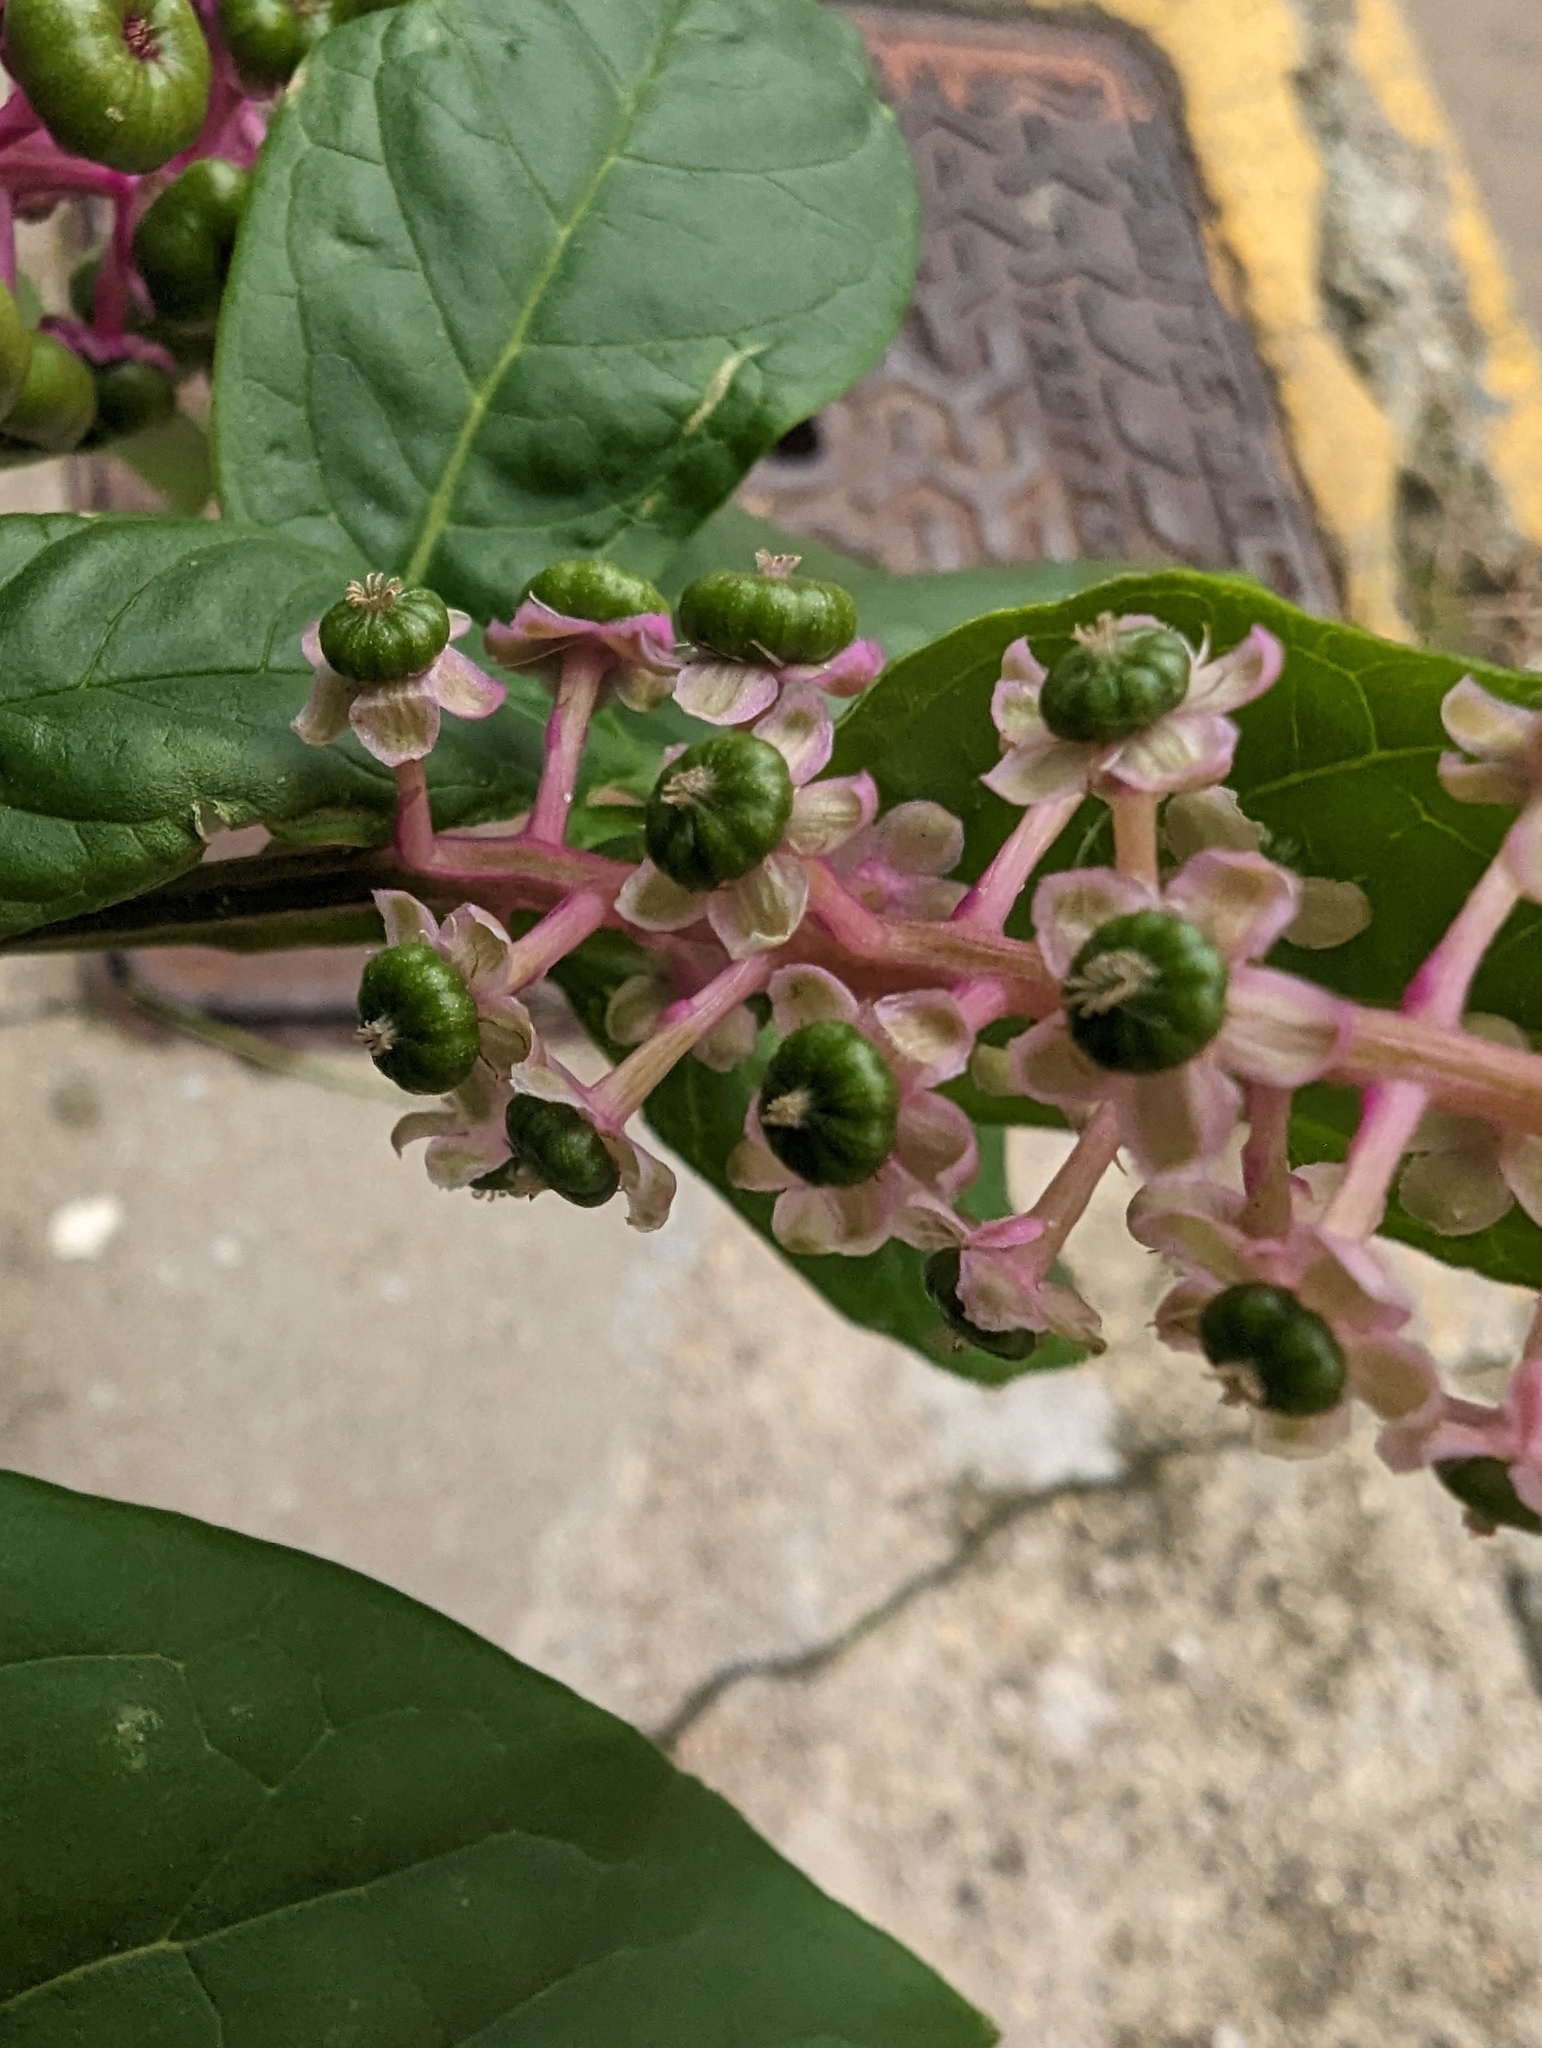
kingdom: Plantae
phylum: Tracheophyta
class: Magnoliopsida
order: Caryophyllales
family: Phytolaccaceae
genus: Phytolacca
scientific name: Phytolacca americana
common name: American pokeweed
